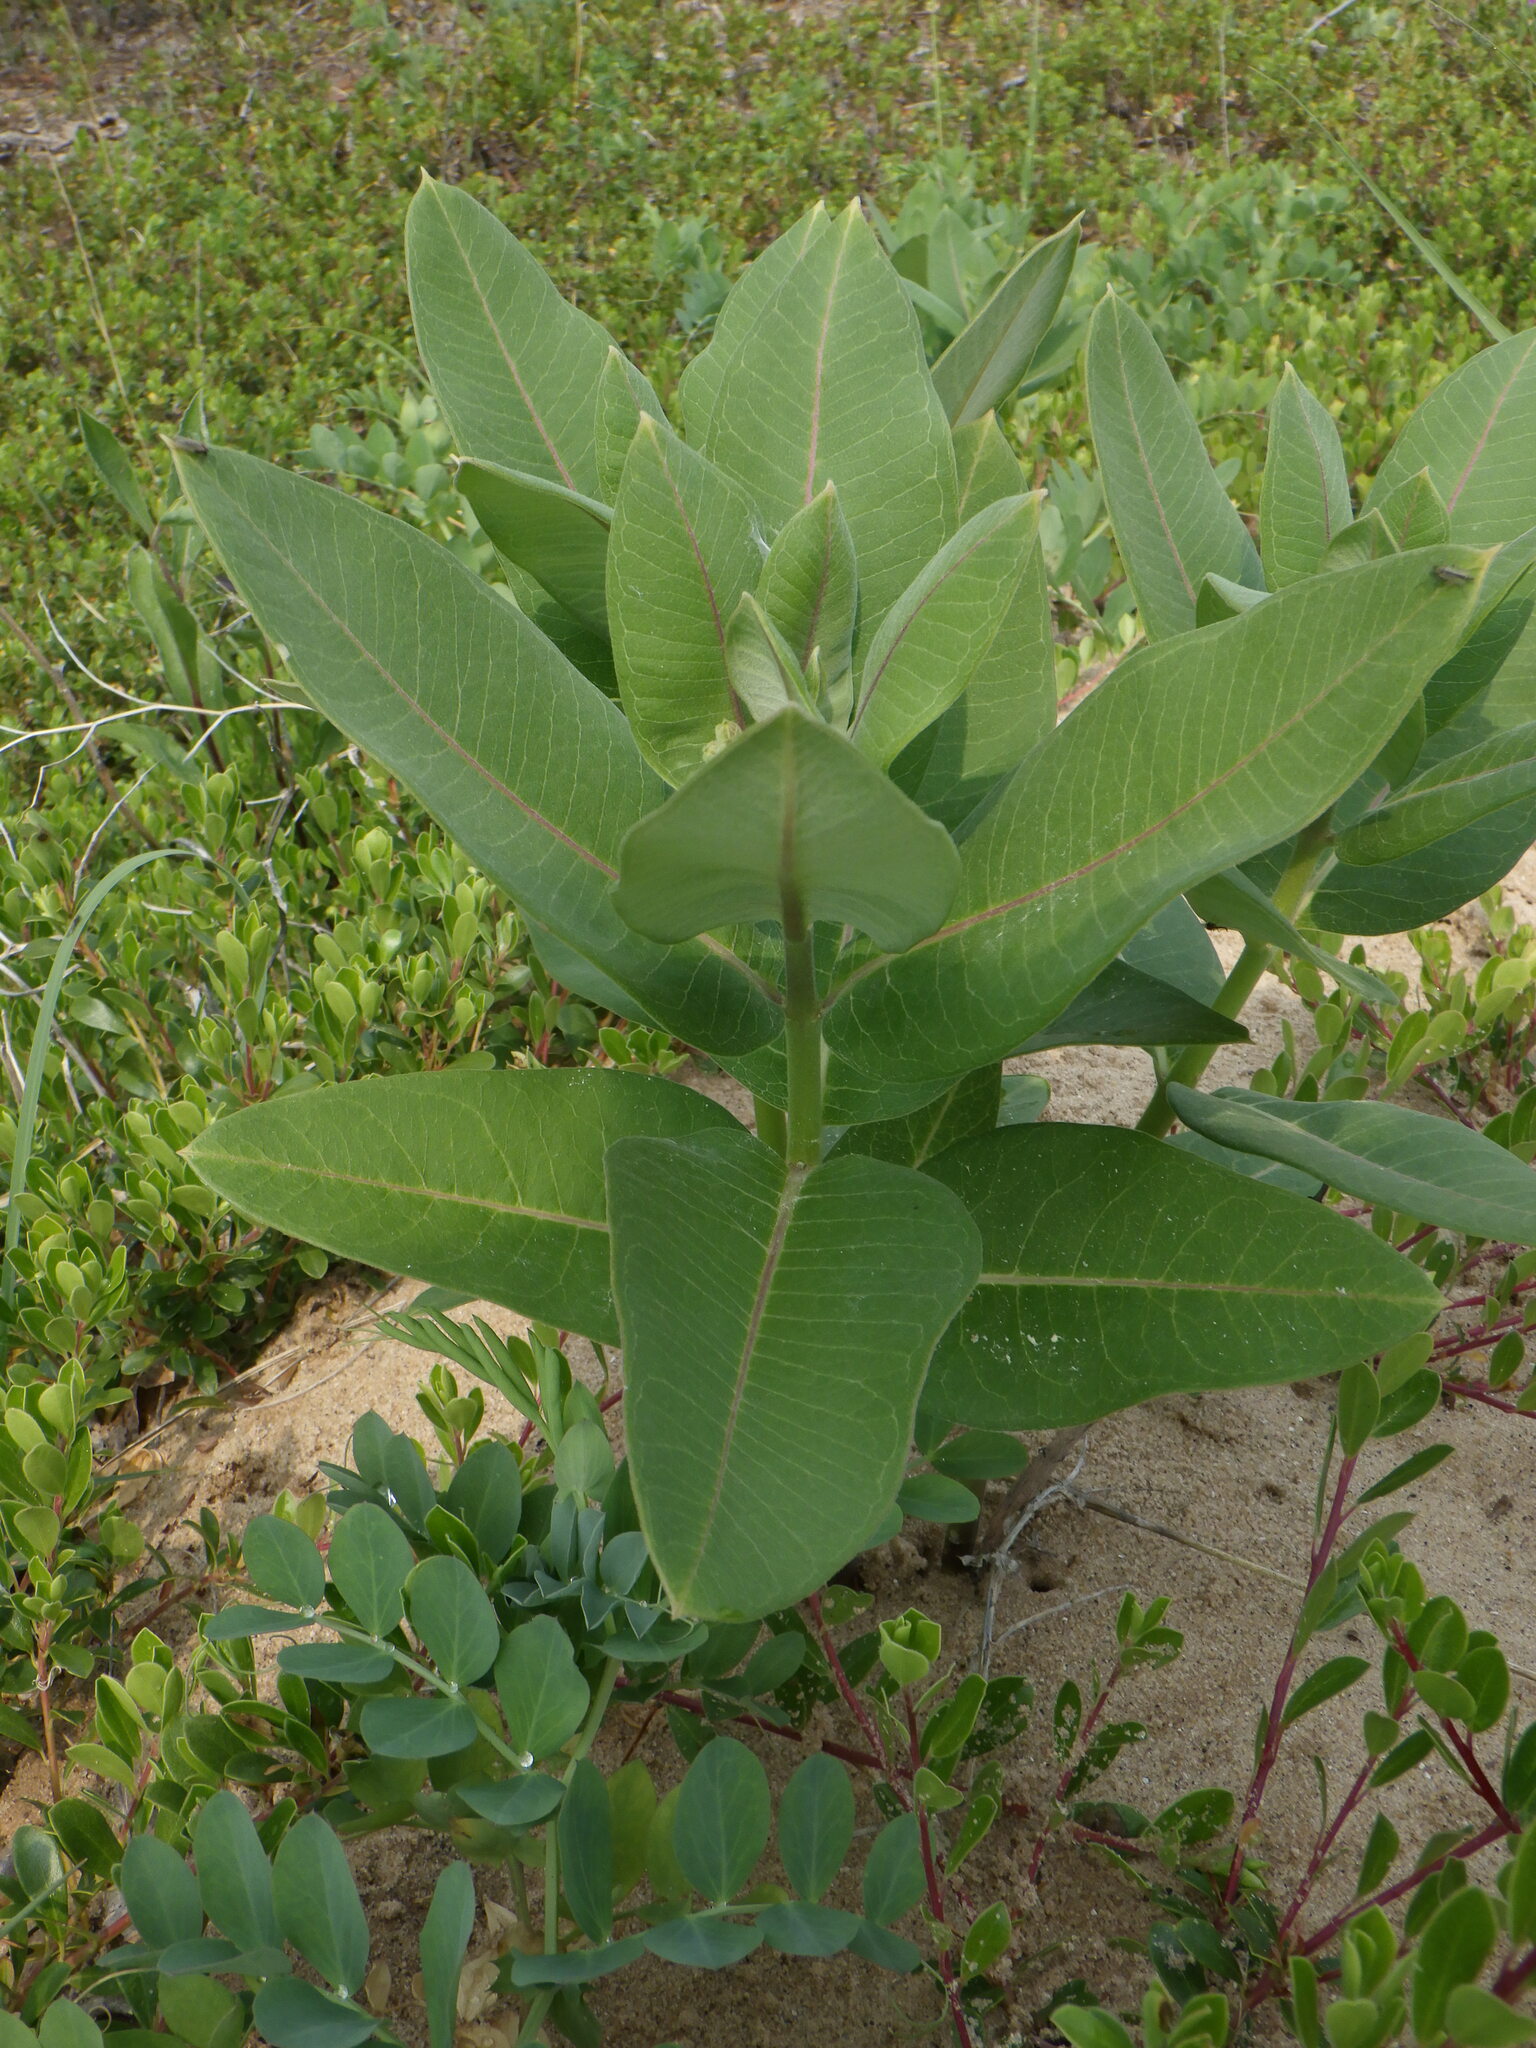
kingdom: Plantae
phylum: Tracheophyta
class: Magnoliopsida
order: Gentianales
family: Apocynaceae
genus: Asclepias
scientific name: Asclepias syriaca
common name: Common milkweed
